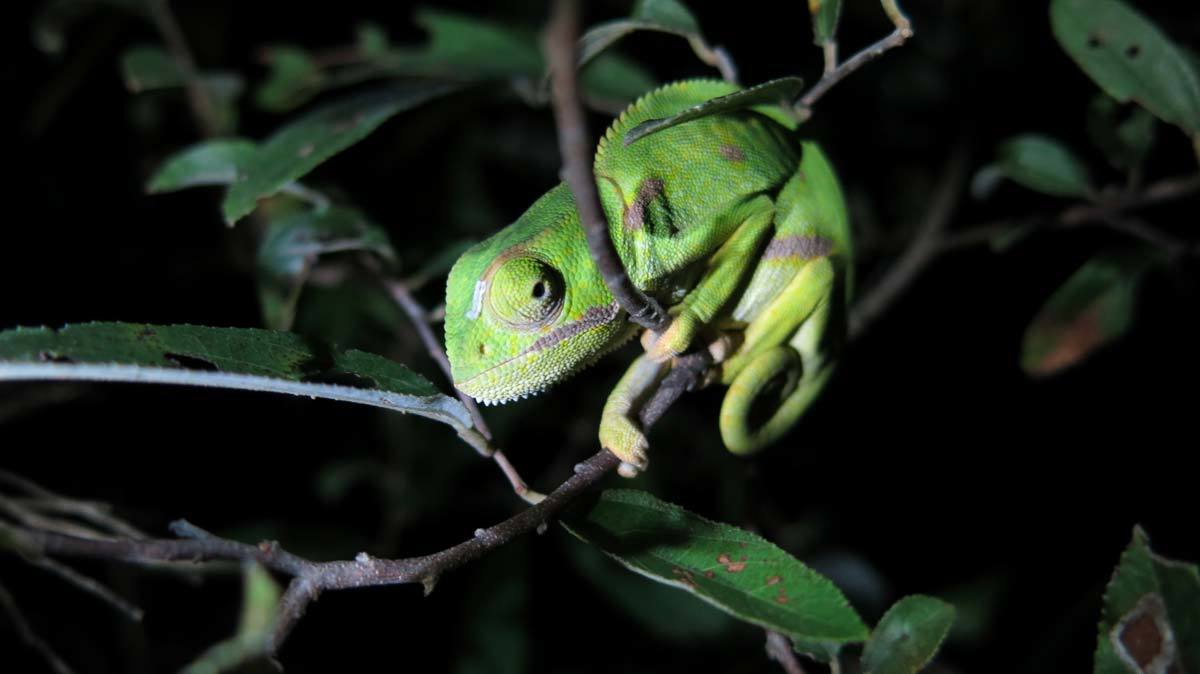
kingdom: Animalia
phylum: Chordata
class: Squamata
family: Chamaeleonidae
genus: Chamaeleo
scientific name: Chamaeleo dilepis
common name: Flapneck chameleon
